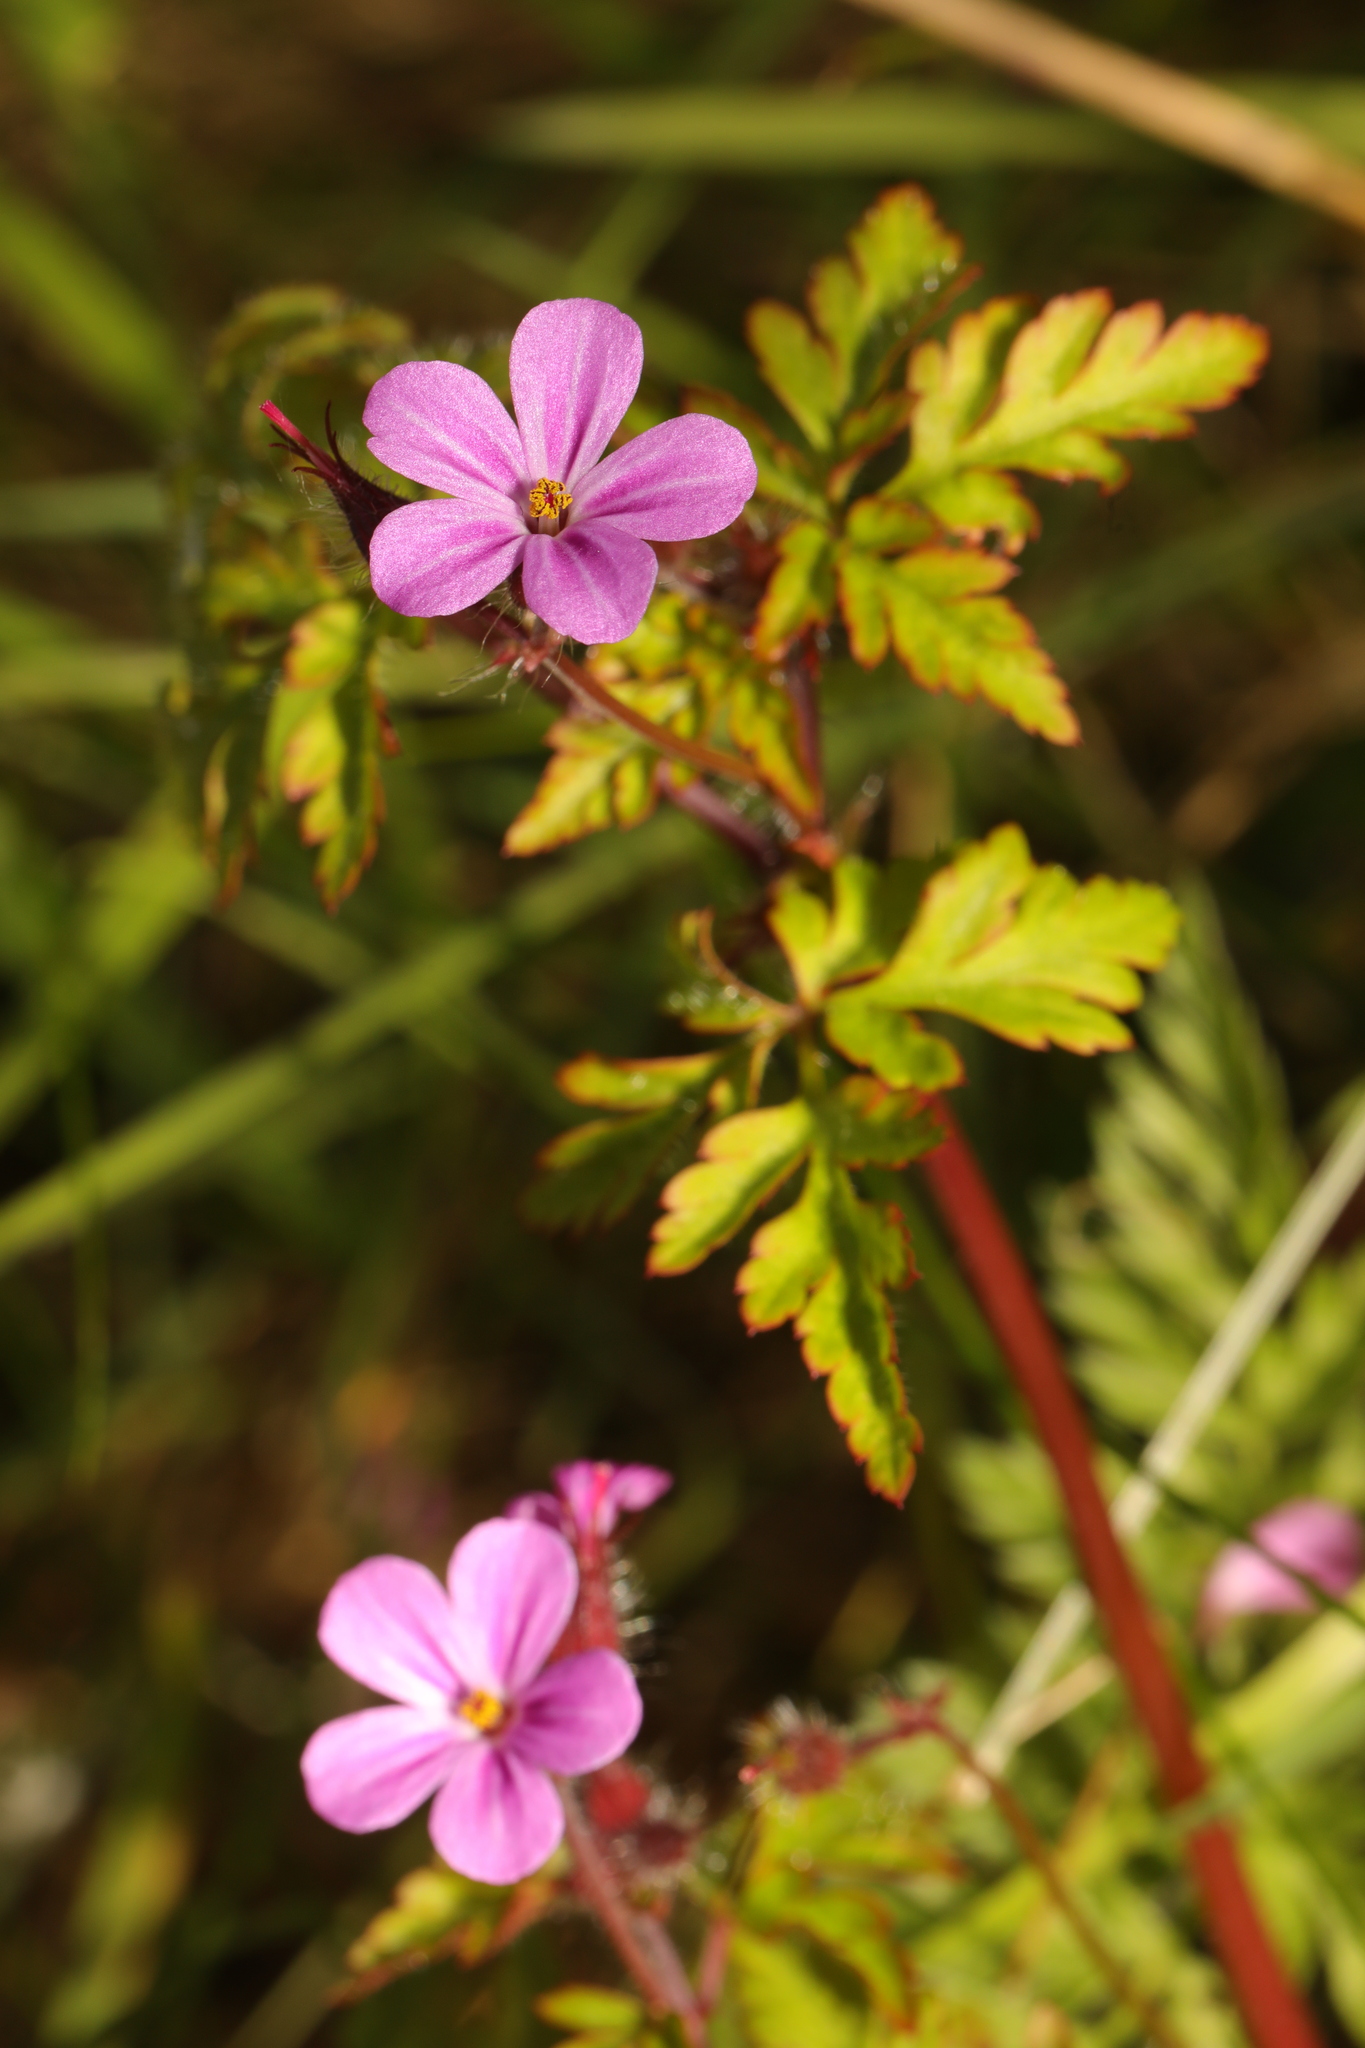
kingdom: Plantae
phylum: Tracheophyta
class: Magnoliopsida
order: Geraniales
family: Geraniaceae
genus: Geranium
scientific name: Geranium robertianum
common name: Herb-robert
